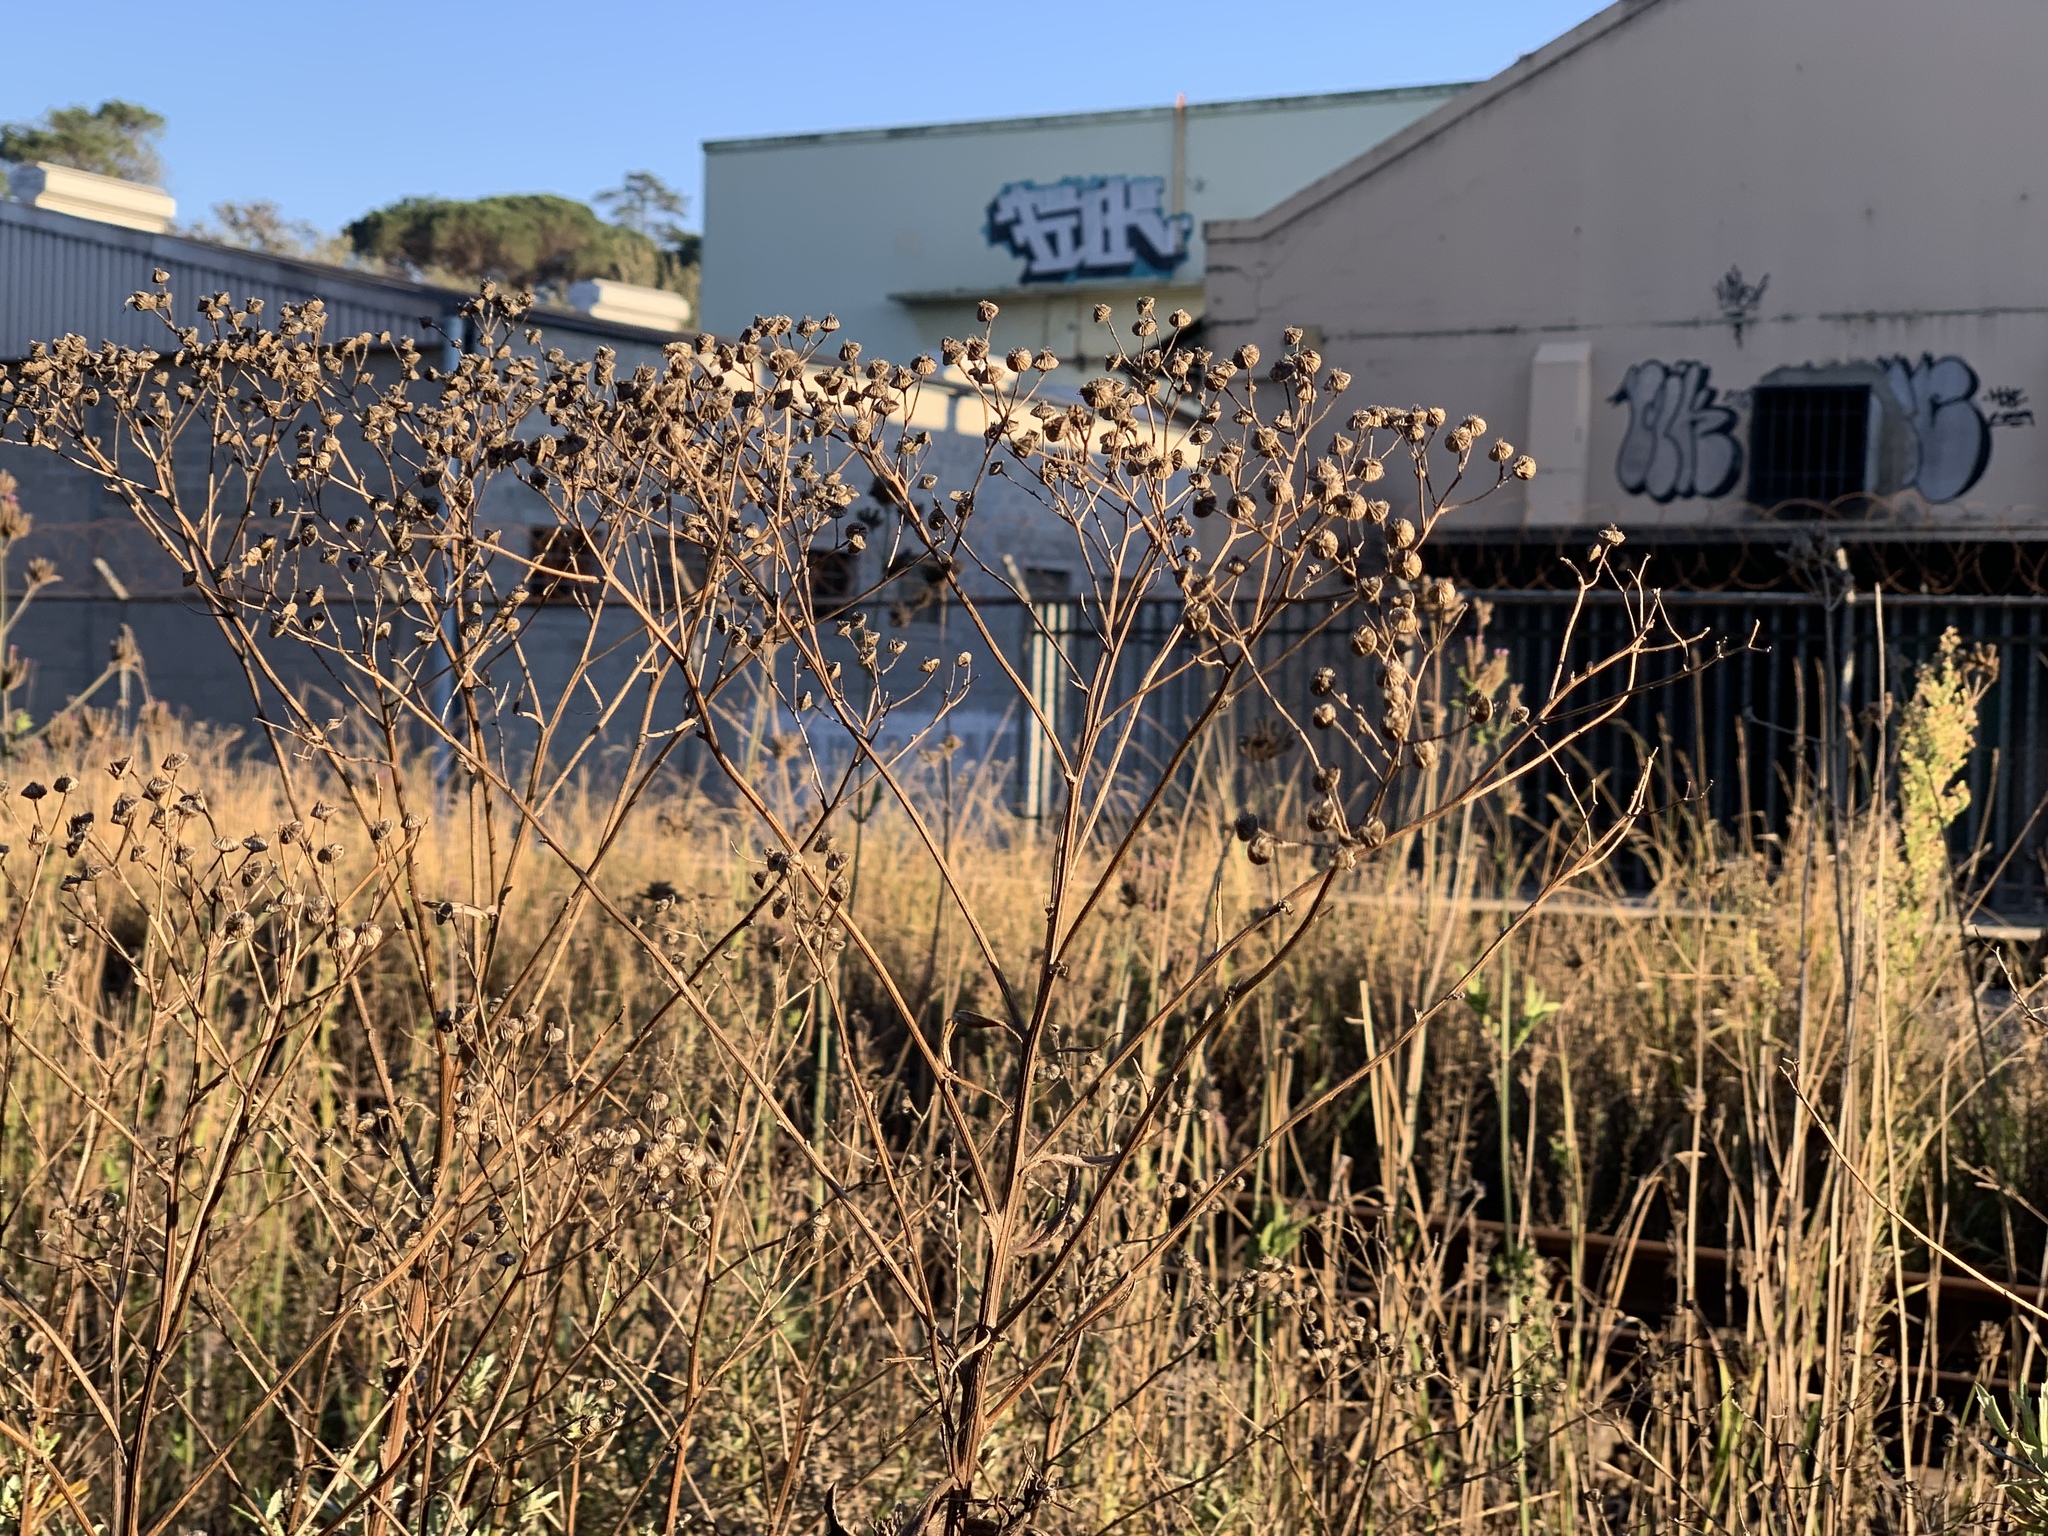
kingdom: Plantae
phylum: Tracheophyta
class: Magnoliopsida
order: Asterales
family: Asteraceae
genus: Senecio
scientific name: Senecio pterophorus
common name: Shoddy ragwort
